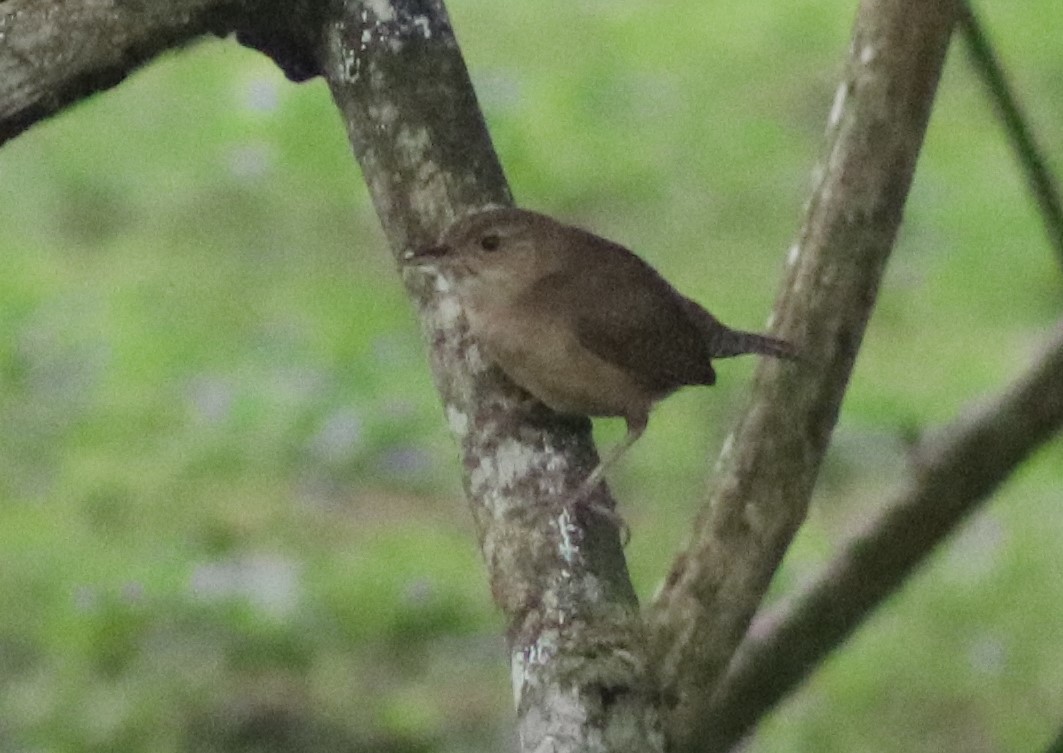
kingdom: Animalia
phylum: Chordata
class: Aves
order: Passeriformes
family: Troglodytidae
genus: Troglodytes
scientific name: Troglodytes aedon
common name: House wren
